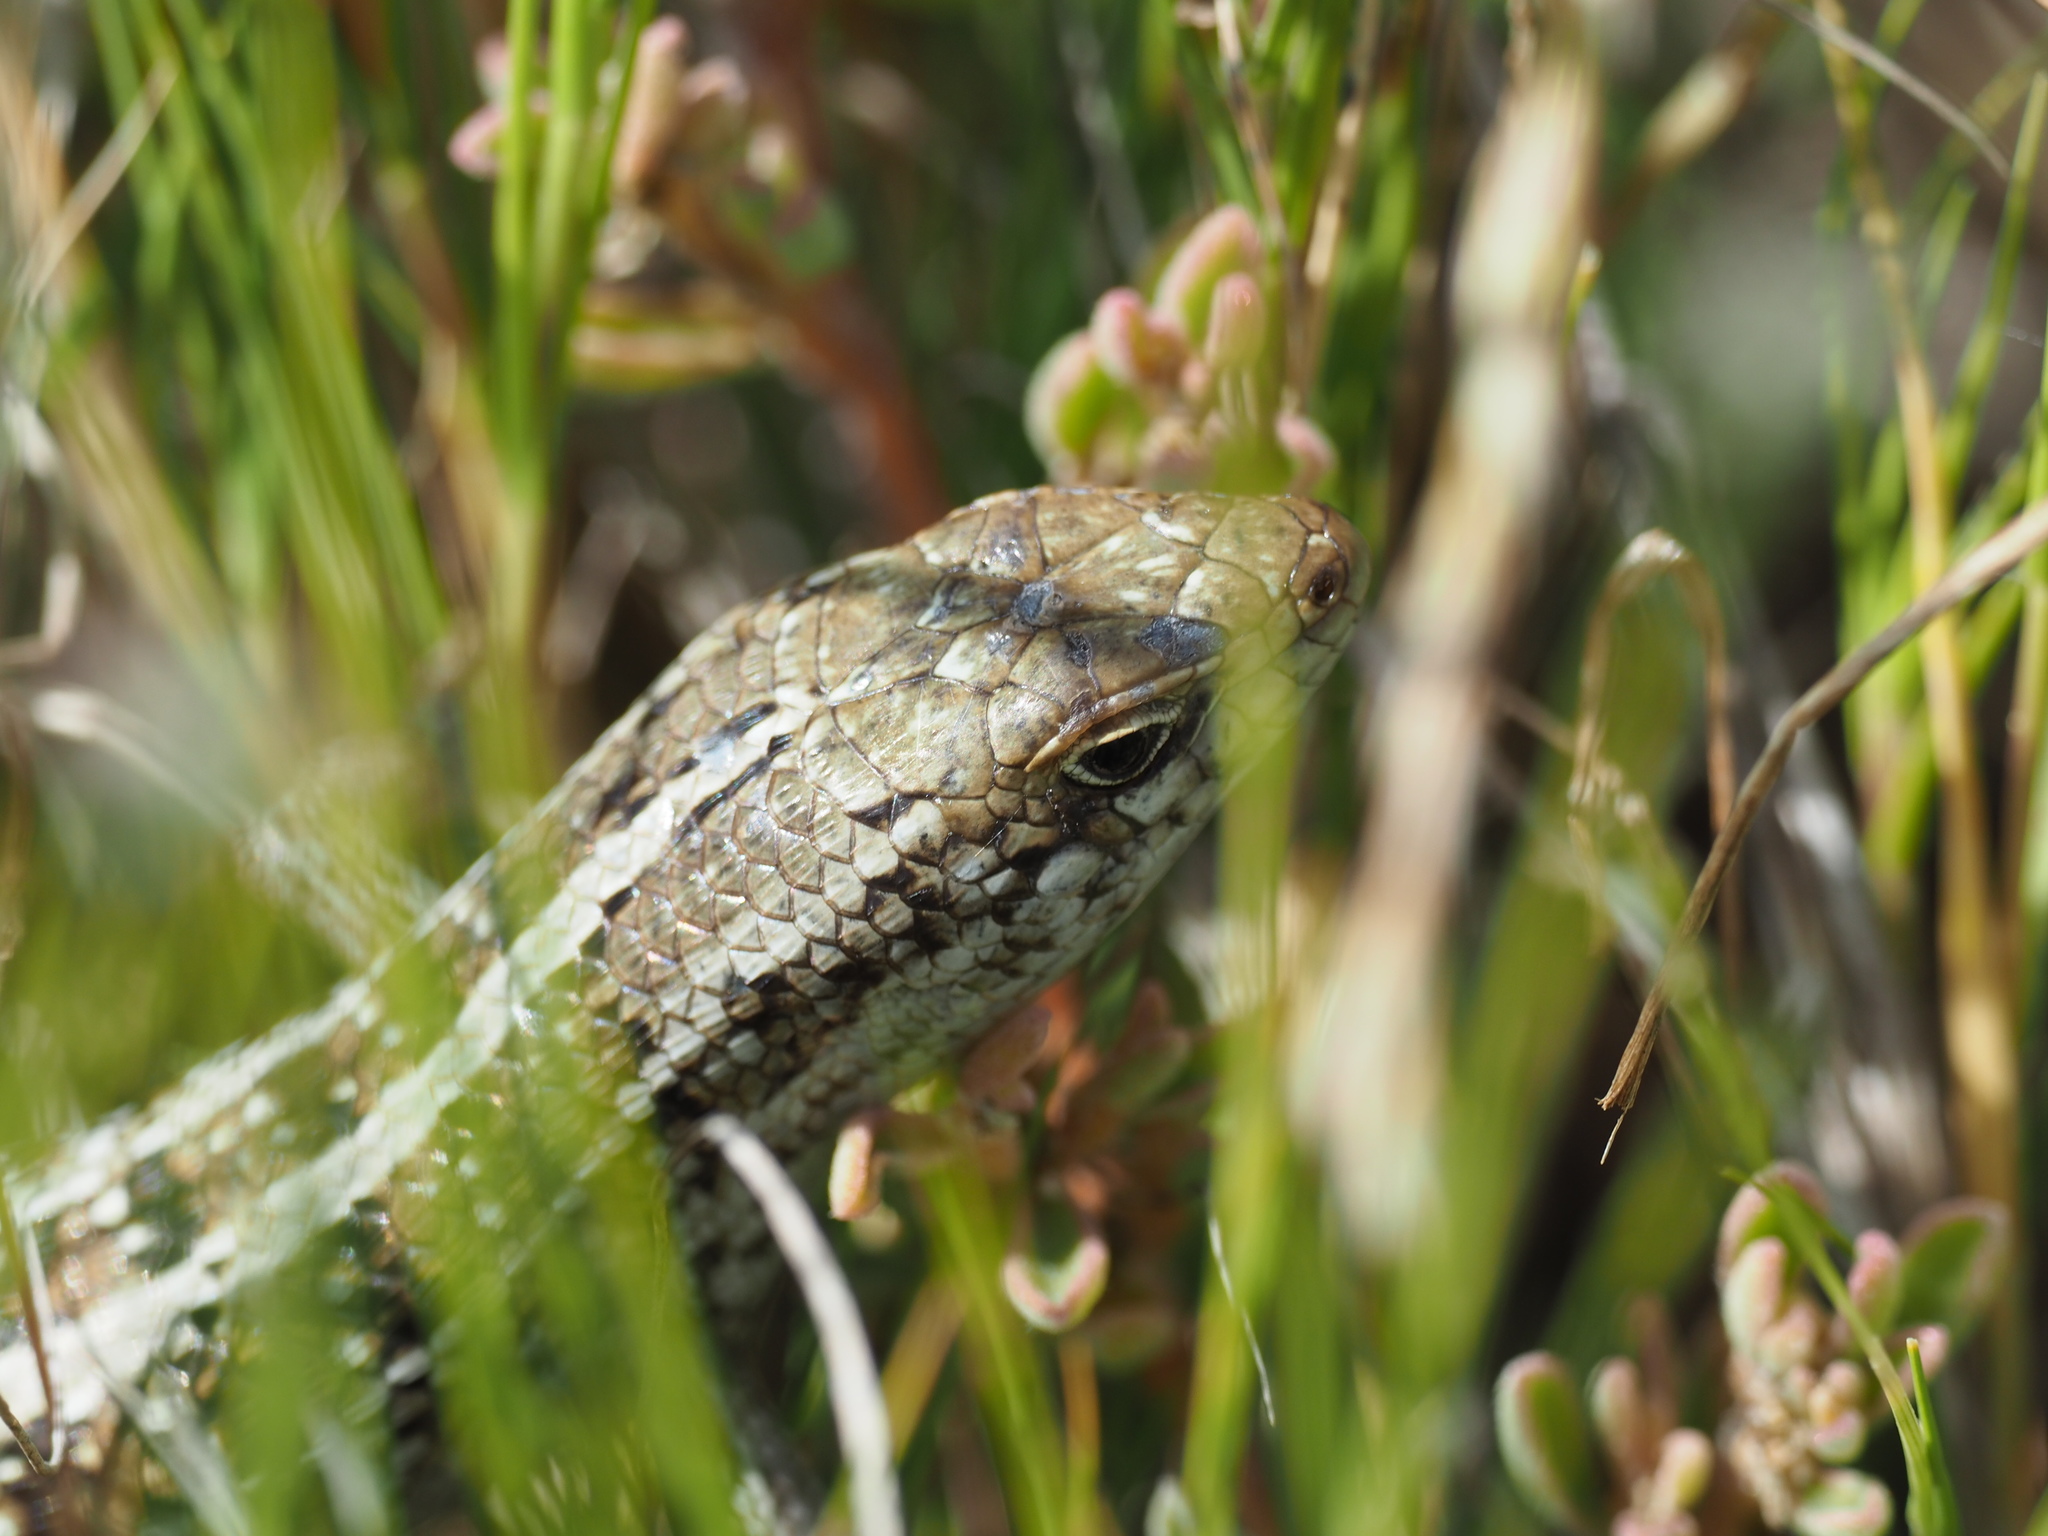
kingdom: Animalia
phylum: Chordata
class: Squamata
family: Scincidae
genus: Trachylepis
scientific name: Trachylepis capensis
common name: Cape skink
